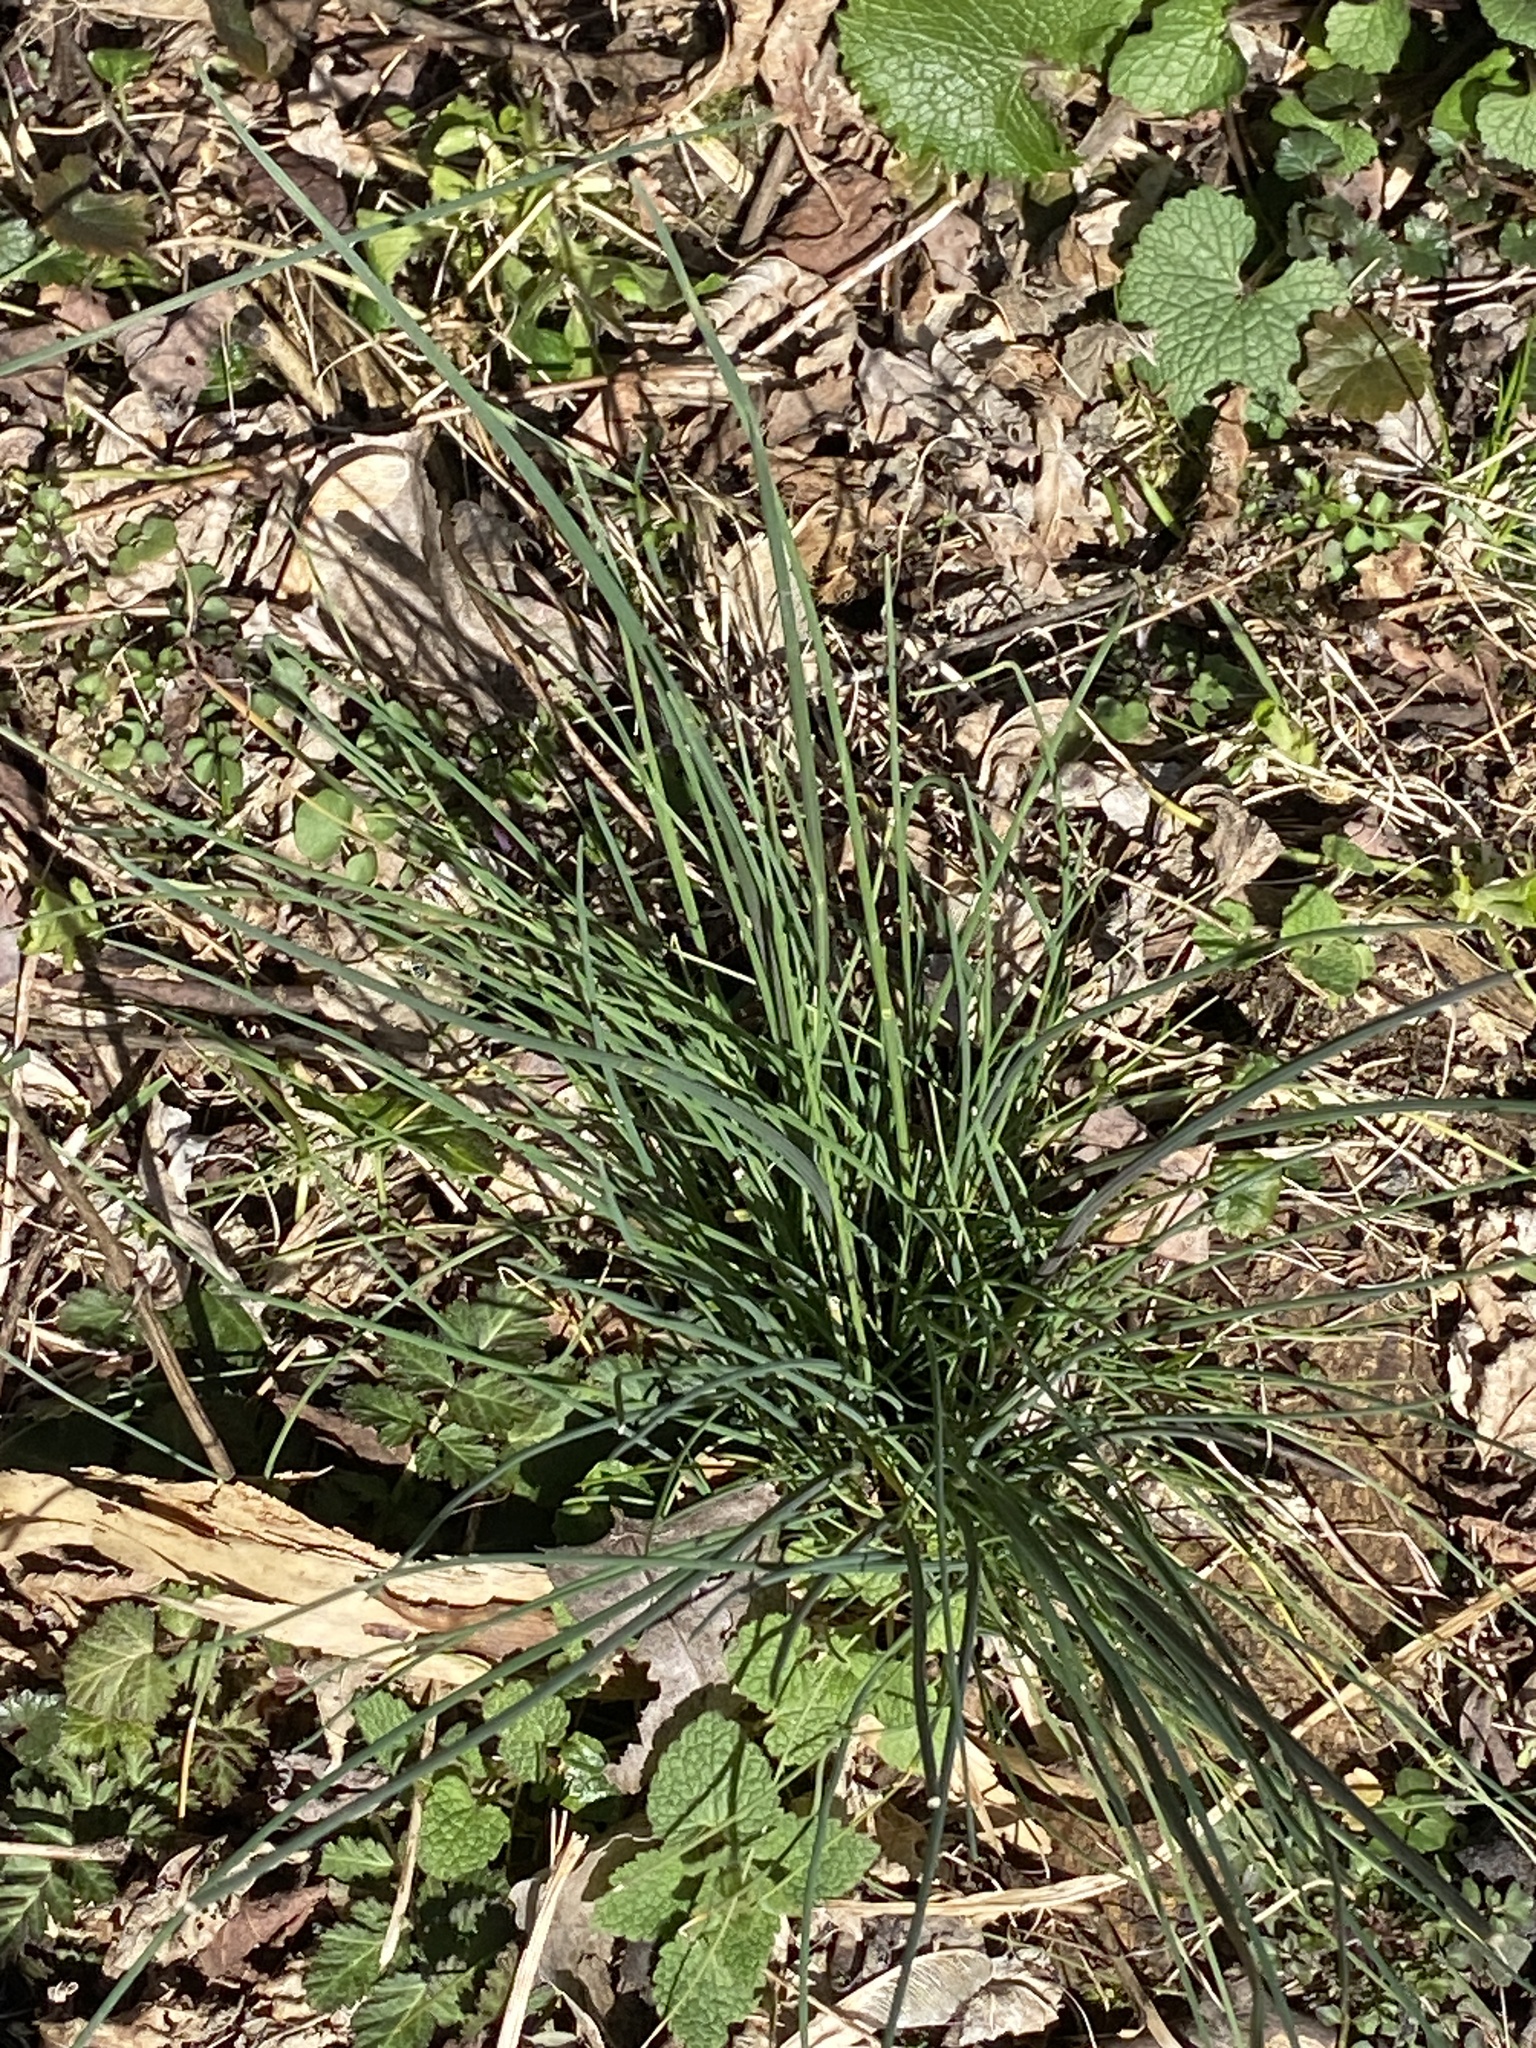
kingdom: Plantae
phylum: Tracheophyta
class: Liliopsida
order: Asparagales
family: Amaryllidaceae
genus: Allium
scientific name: Allium vineale
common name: Crow garlic
